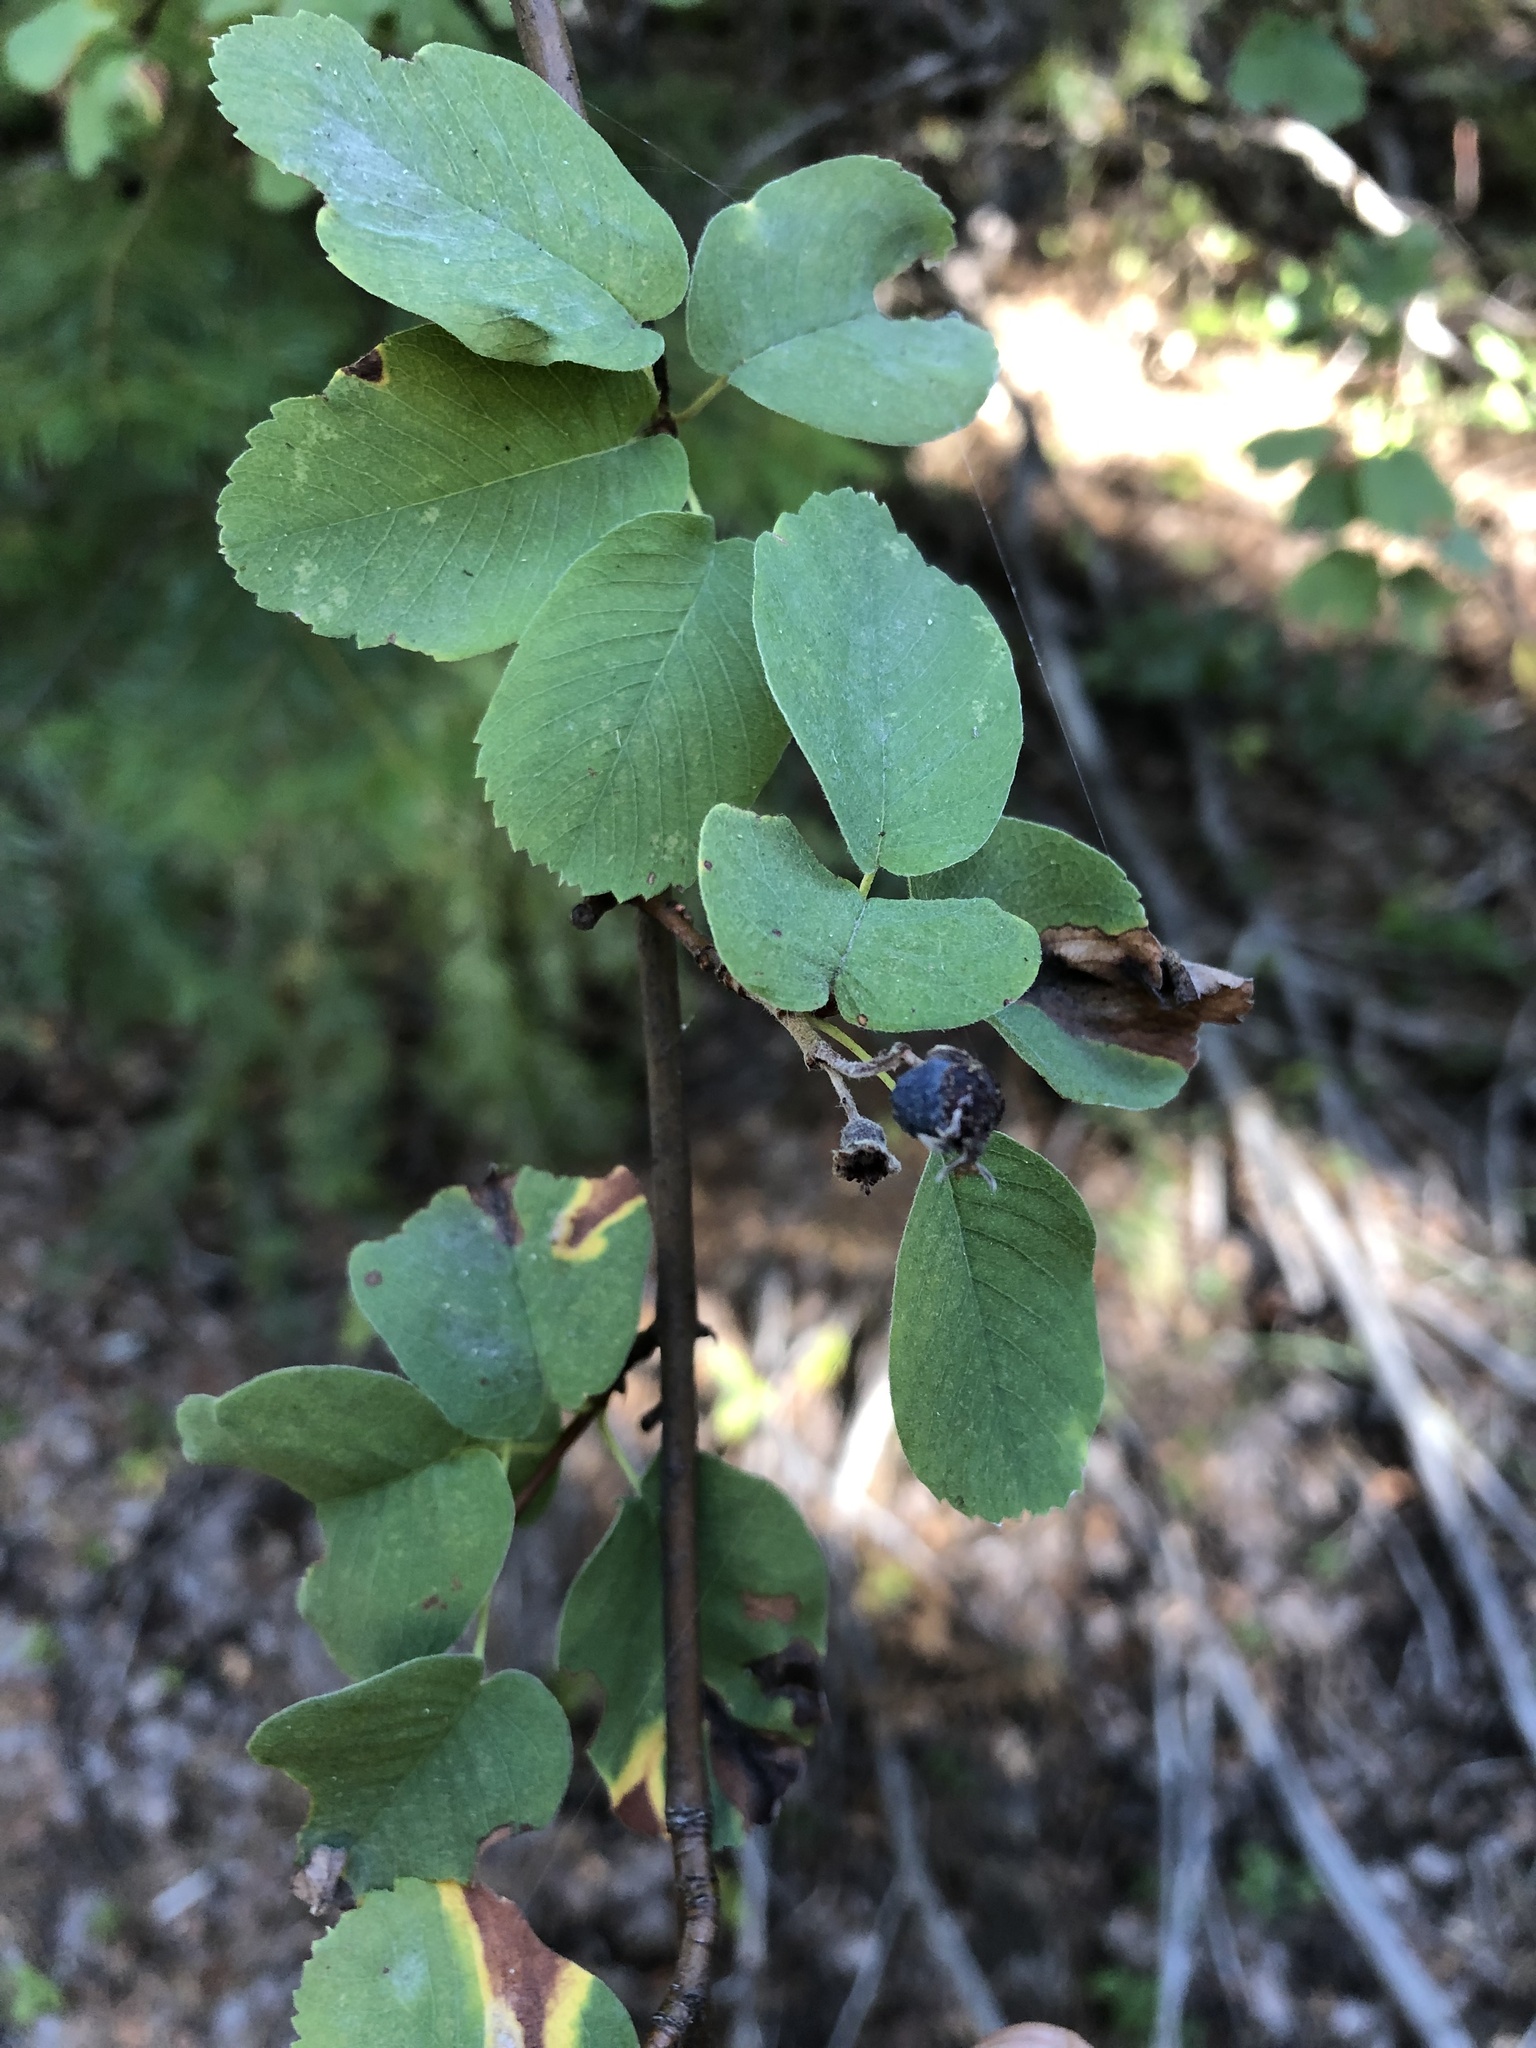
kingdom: Plantae
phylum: Tracheophyta
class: Magnoliopsida
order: Rosales
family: Rosaceae
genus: Amelanchier
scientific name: Amelanchier alnifolia
